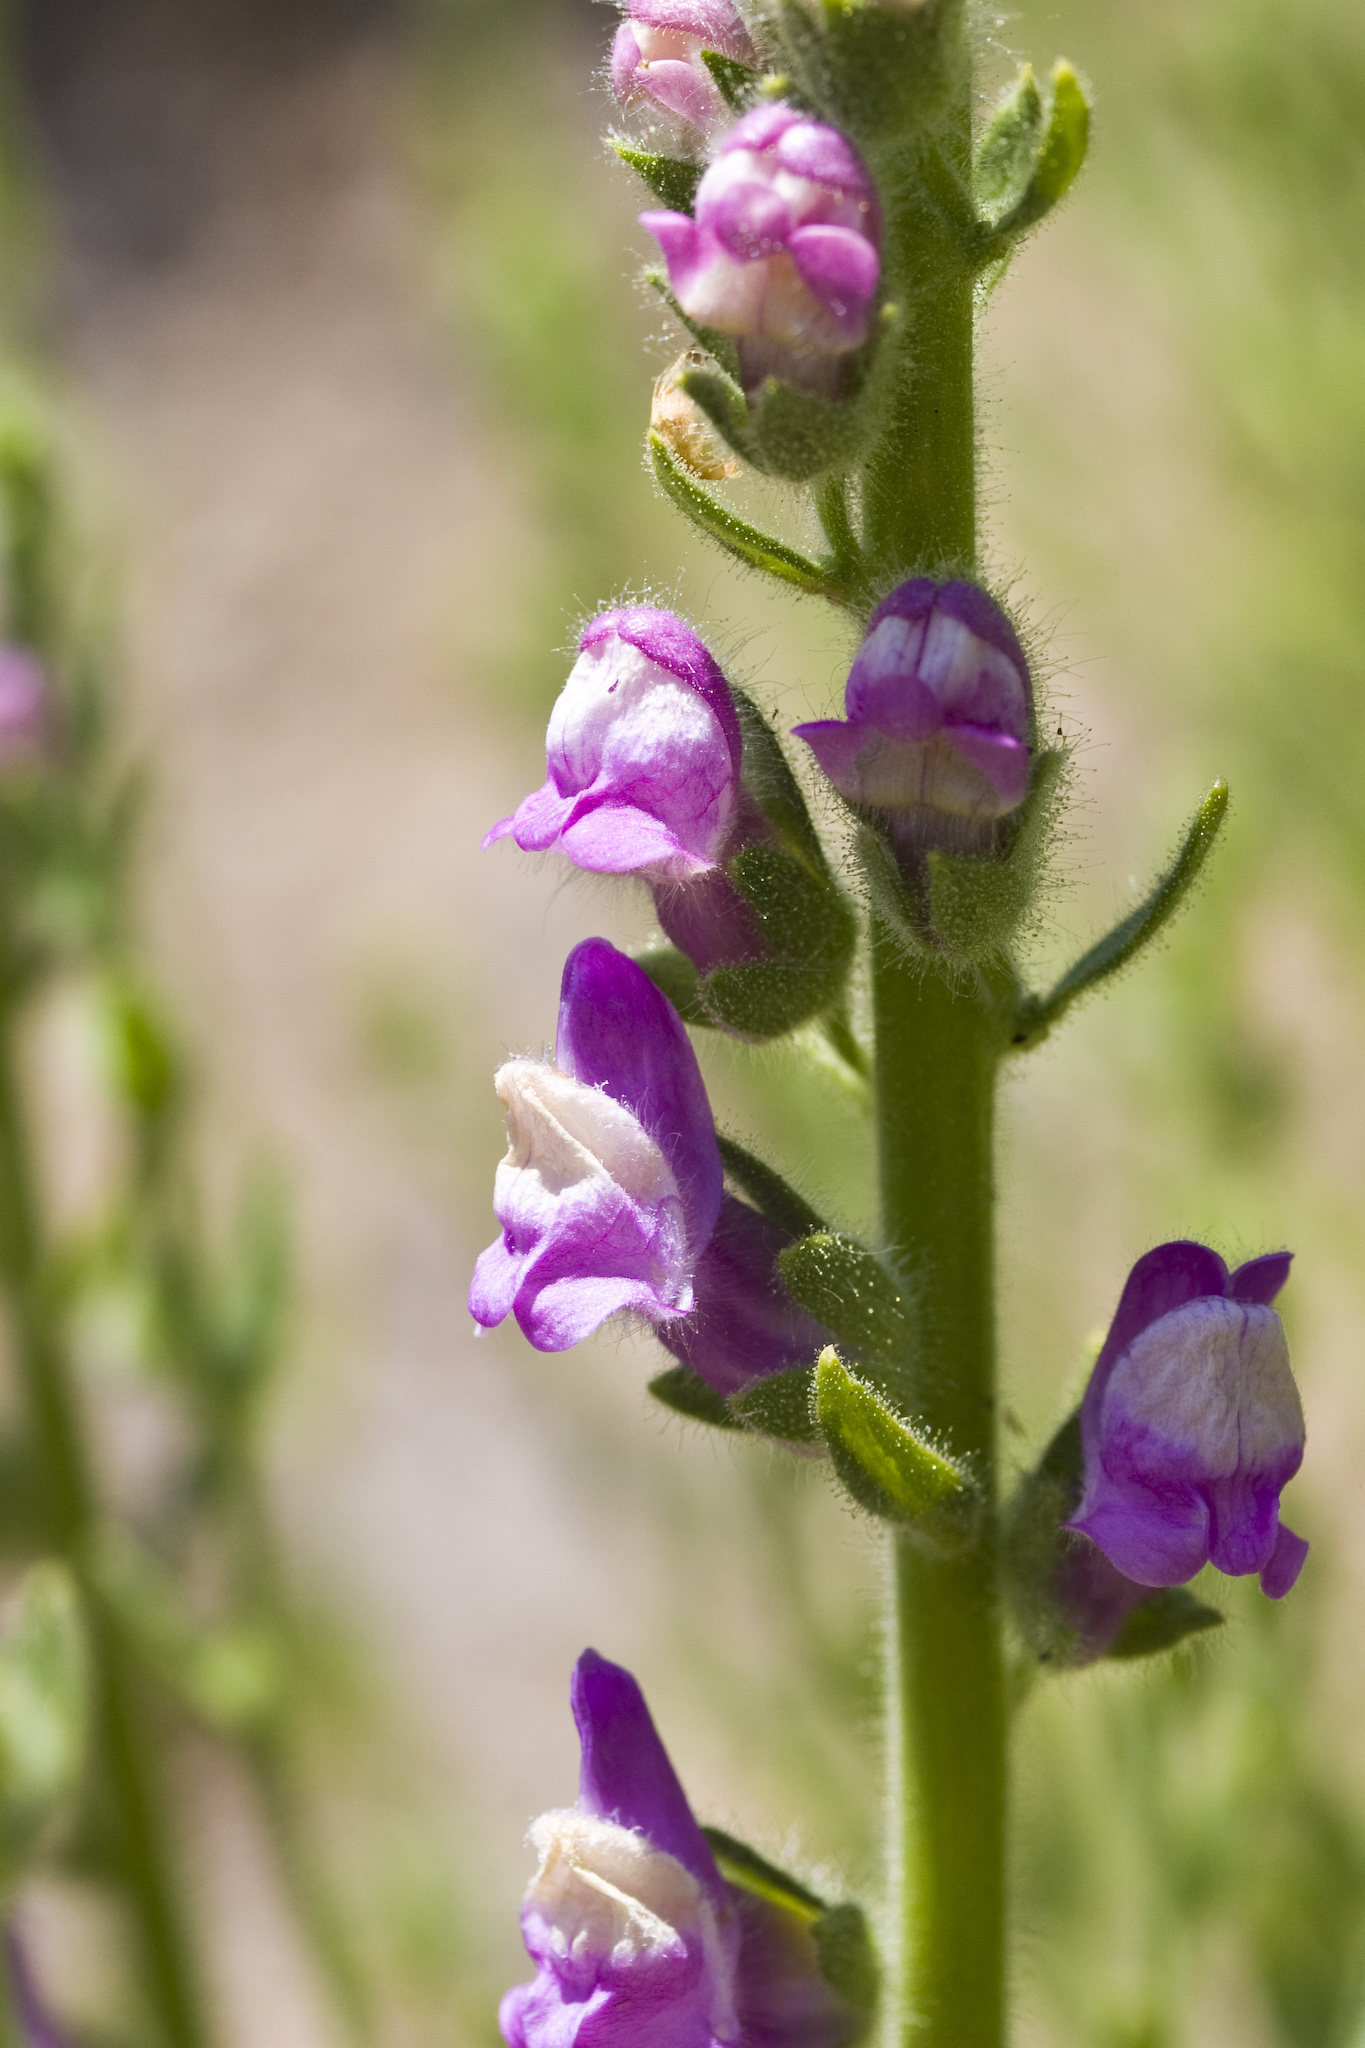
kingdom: Plantae
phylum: Tracheophyta
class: Magnoliopsida
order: Lamiales
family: Plantaginaceae
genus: Sairocarpus
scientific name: Sairocarpus multiflorus
